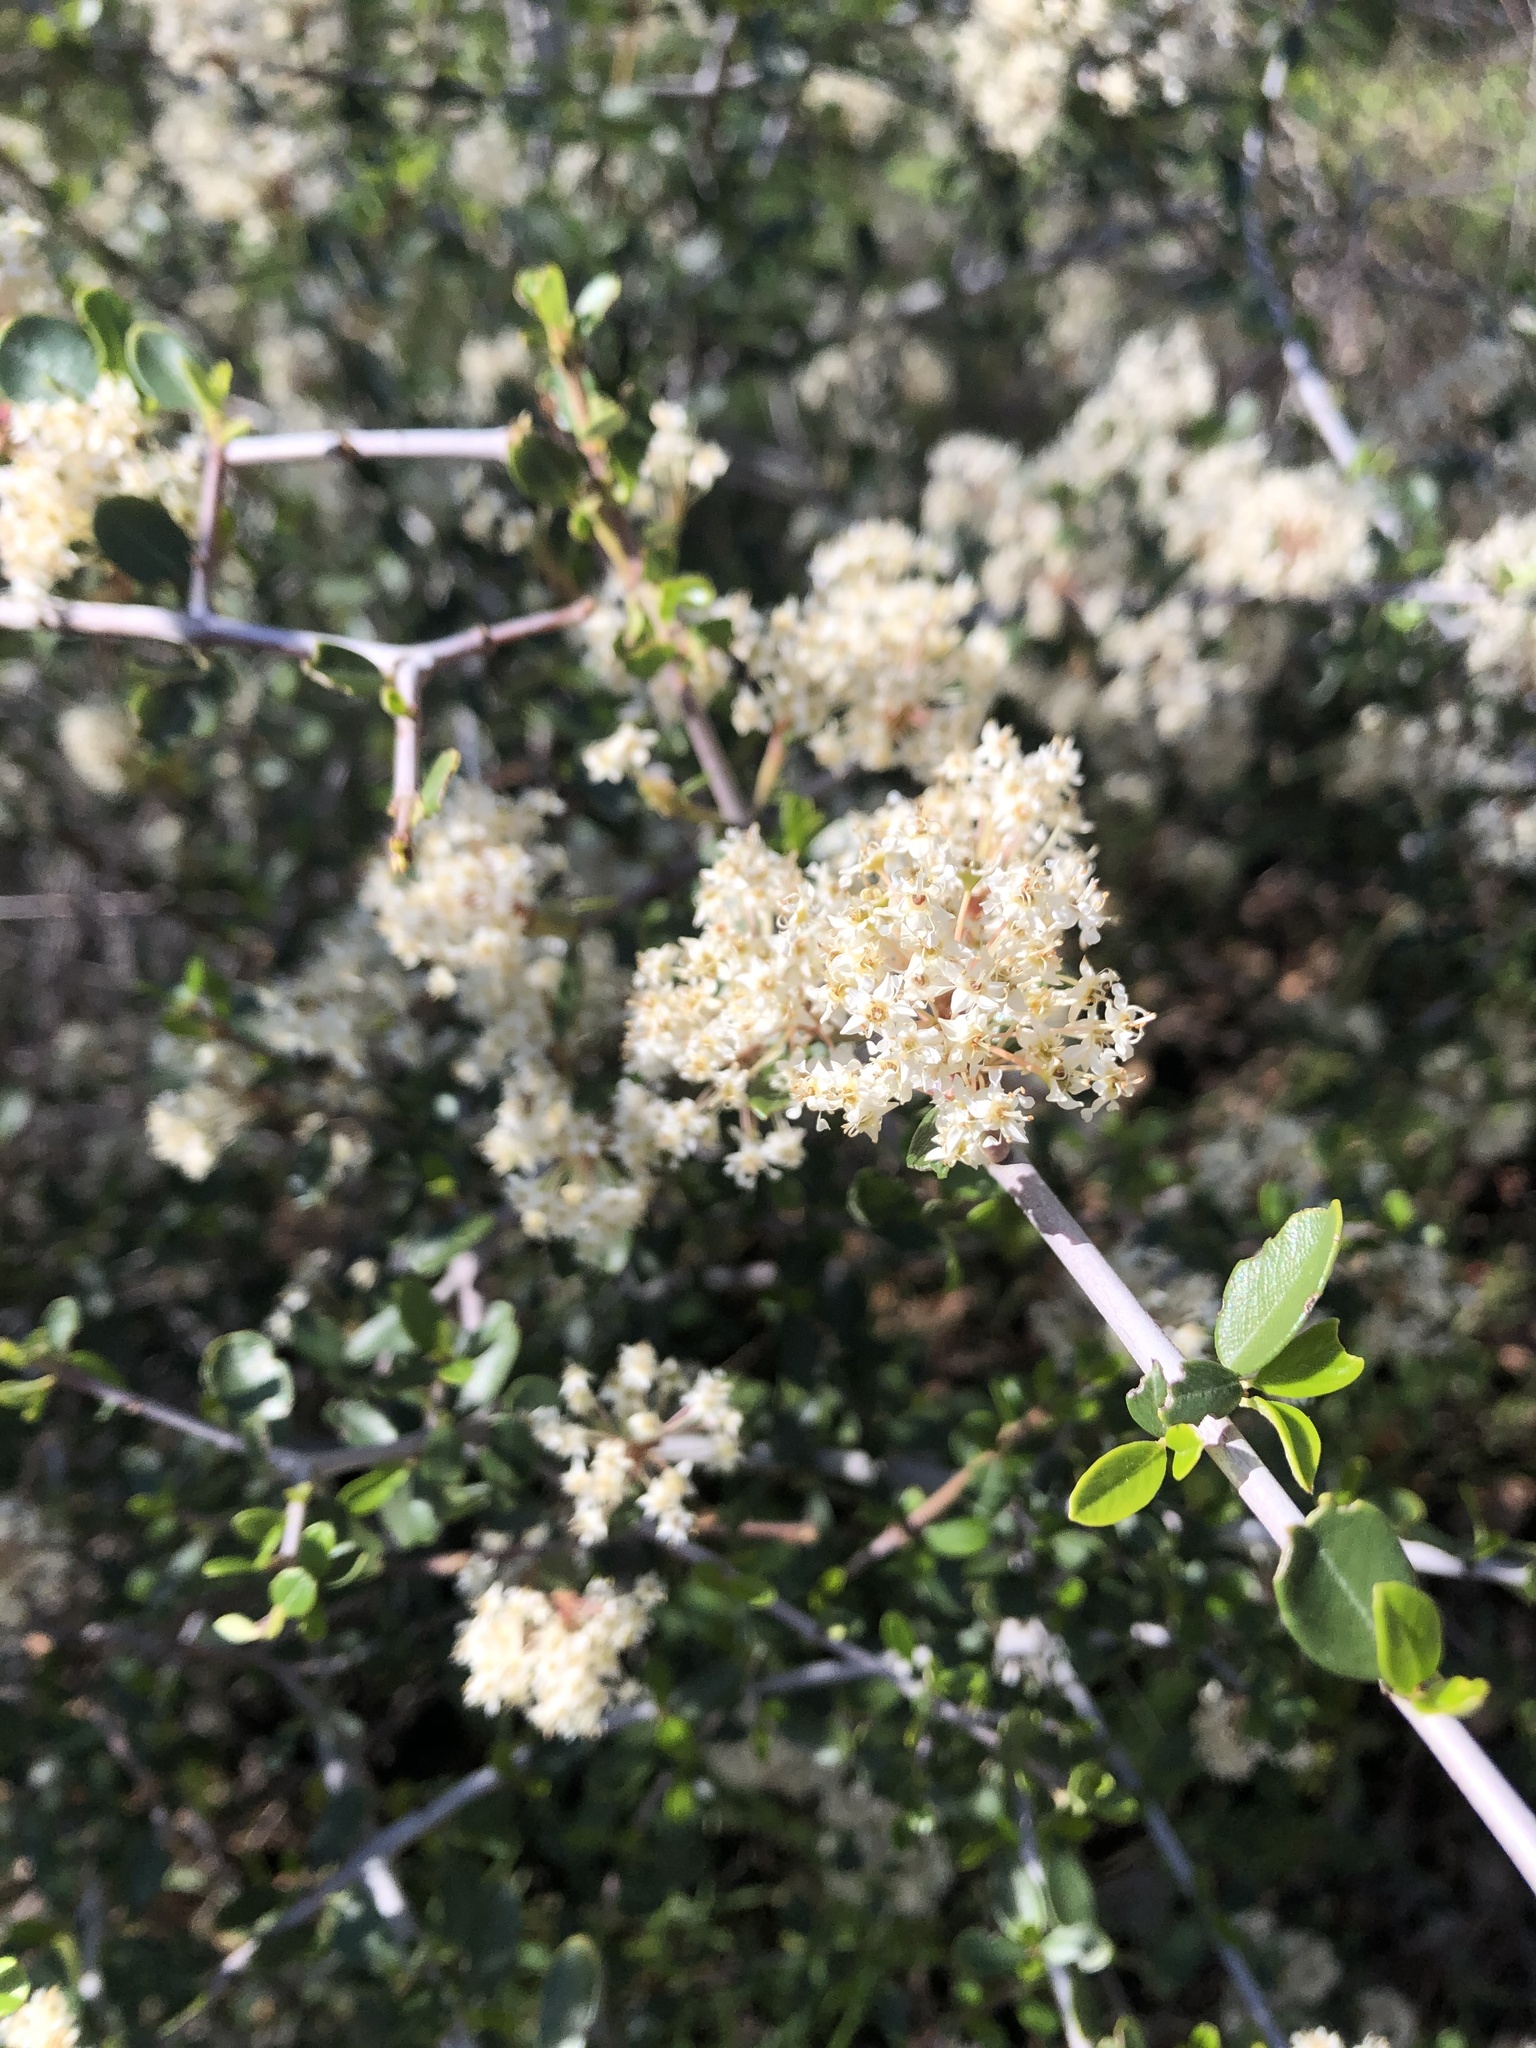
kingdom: Plantae
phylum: Tracheophyta
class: Magnoliopsida
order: Rosales
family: Rhamnaceae
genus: Ceanothus
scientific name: Ceanothus cuneatus
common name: Cuneate ceanothus
